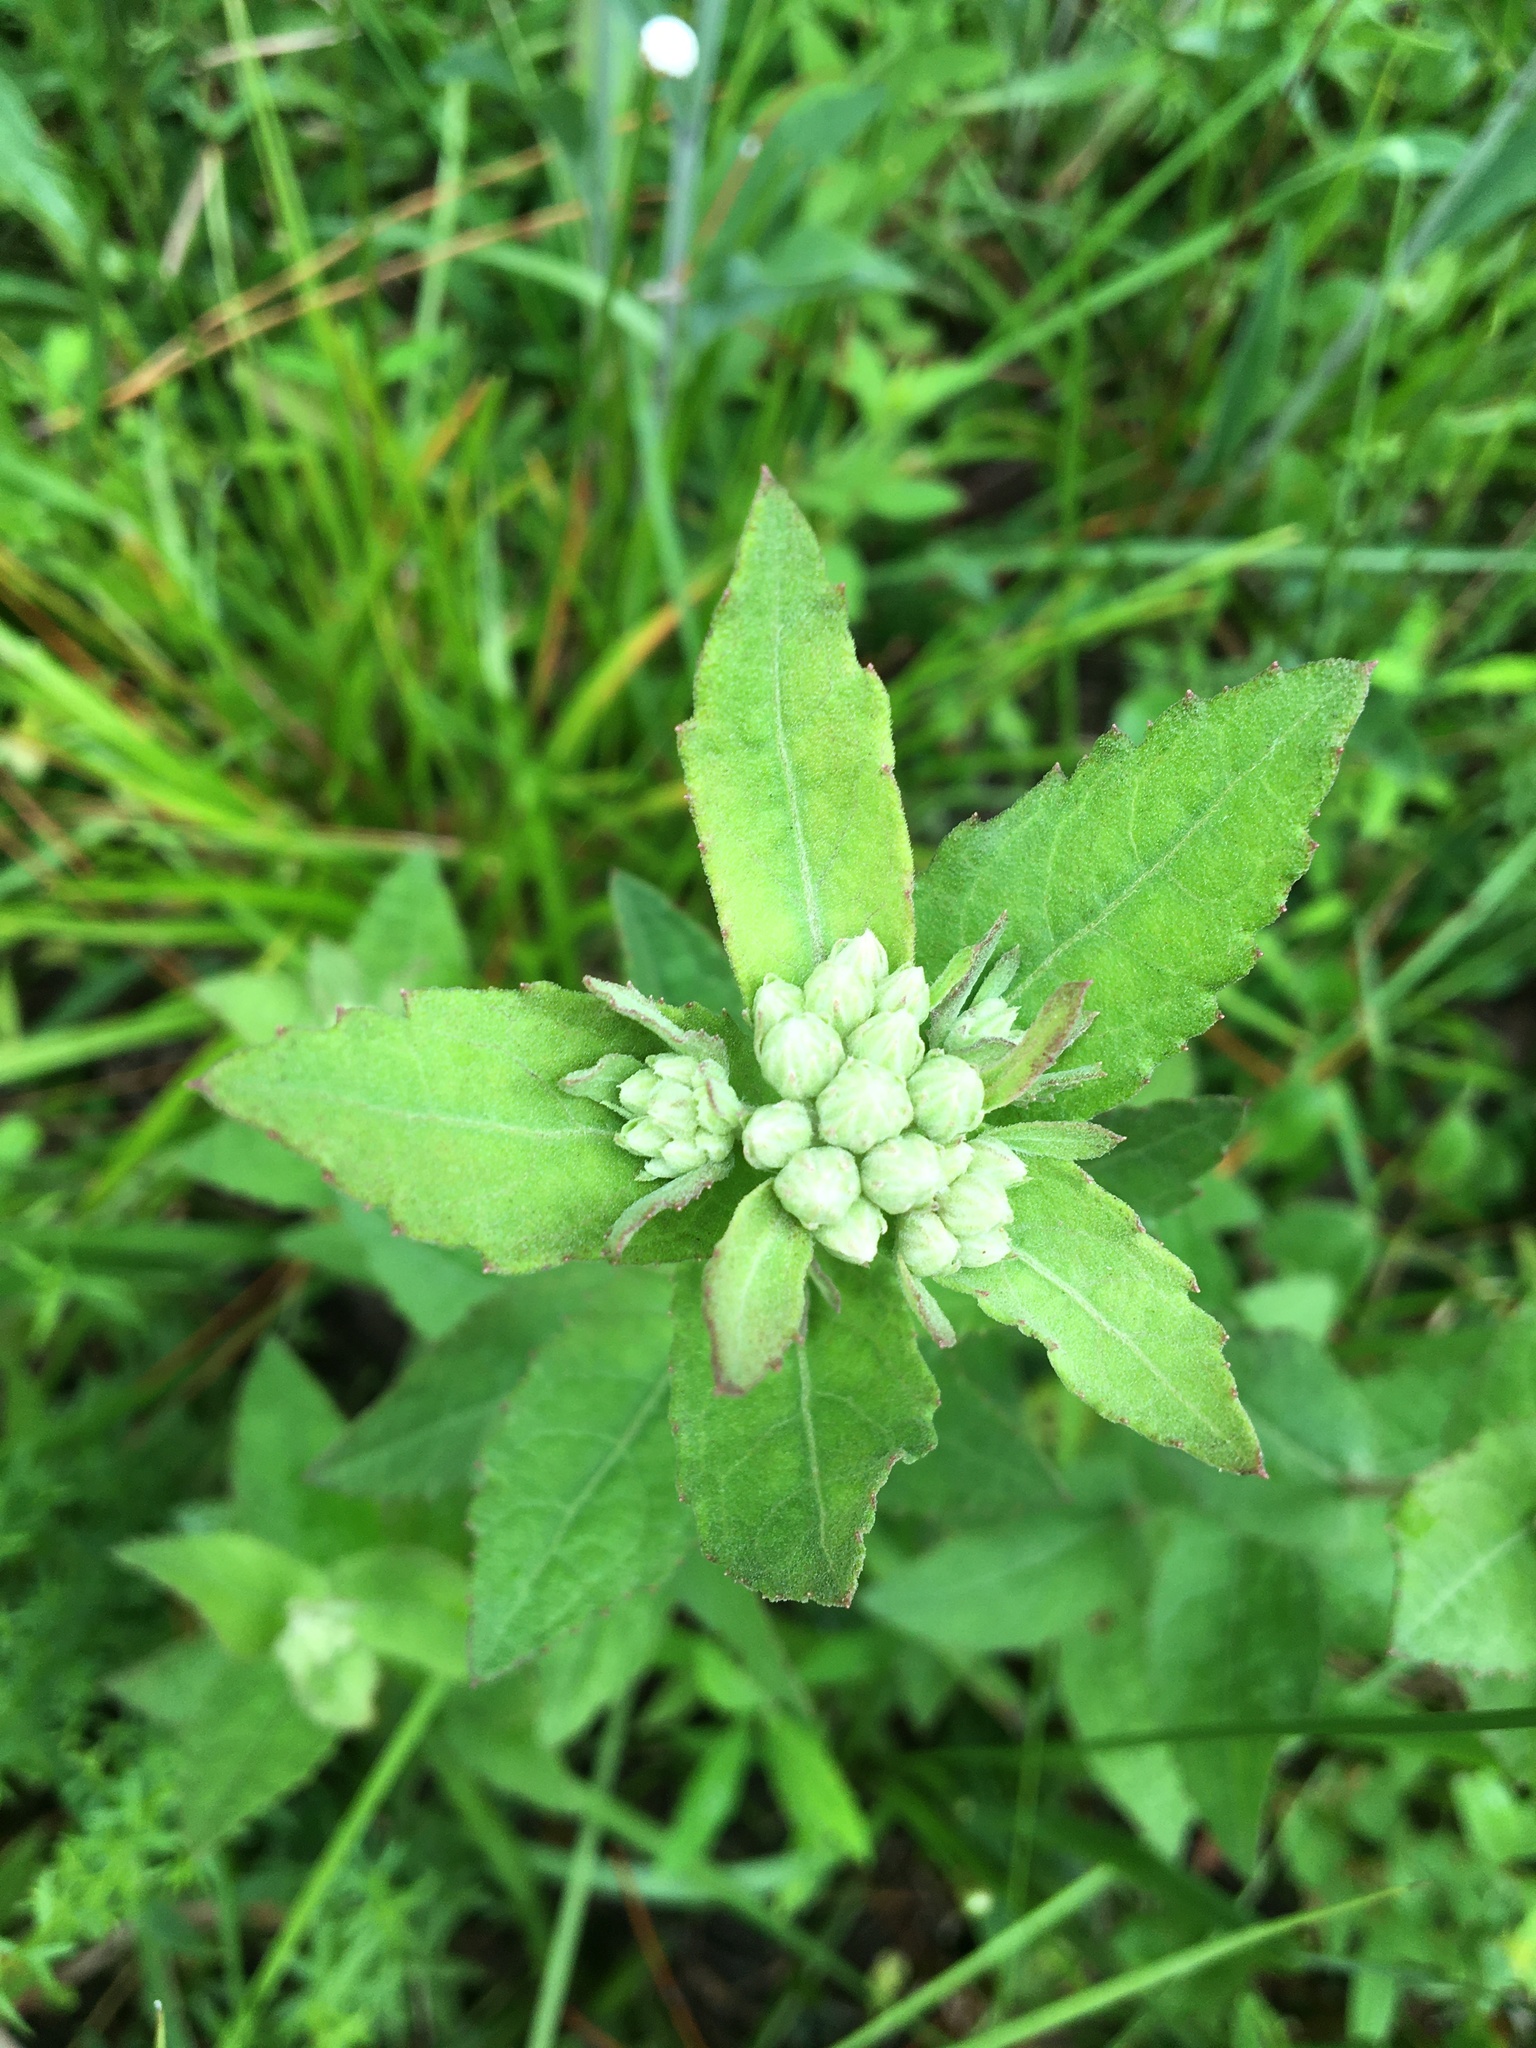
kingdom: Plantae
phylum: Tracheophyta
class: Magnoliopsida
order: Asterales
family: Asteraceae
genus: Pluchea
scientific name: Pluchea baccharis
